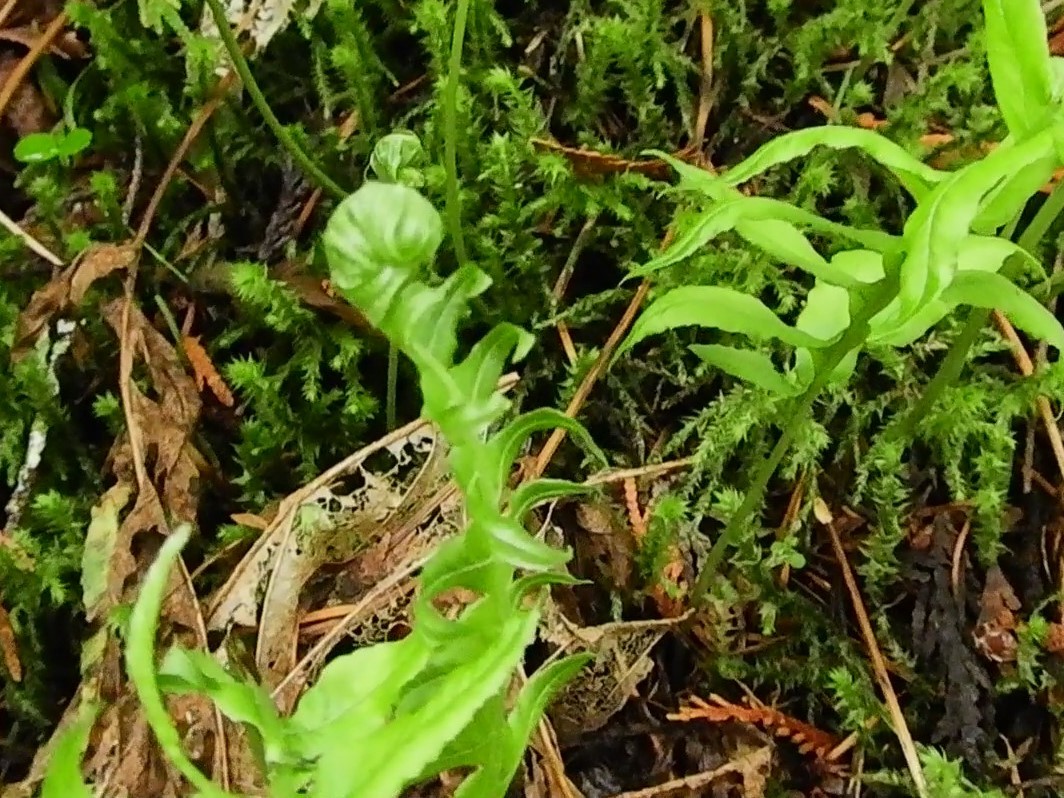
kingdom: Plantae
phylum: Tracheophyta
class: Polypodiopsida
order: Polypodiales
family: Polypodiaceae
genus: Polypodium
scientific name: Polypodium glycyrrhiza
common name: Licorice fern
